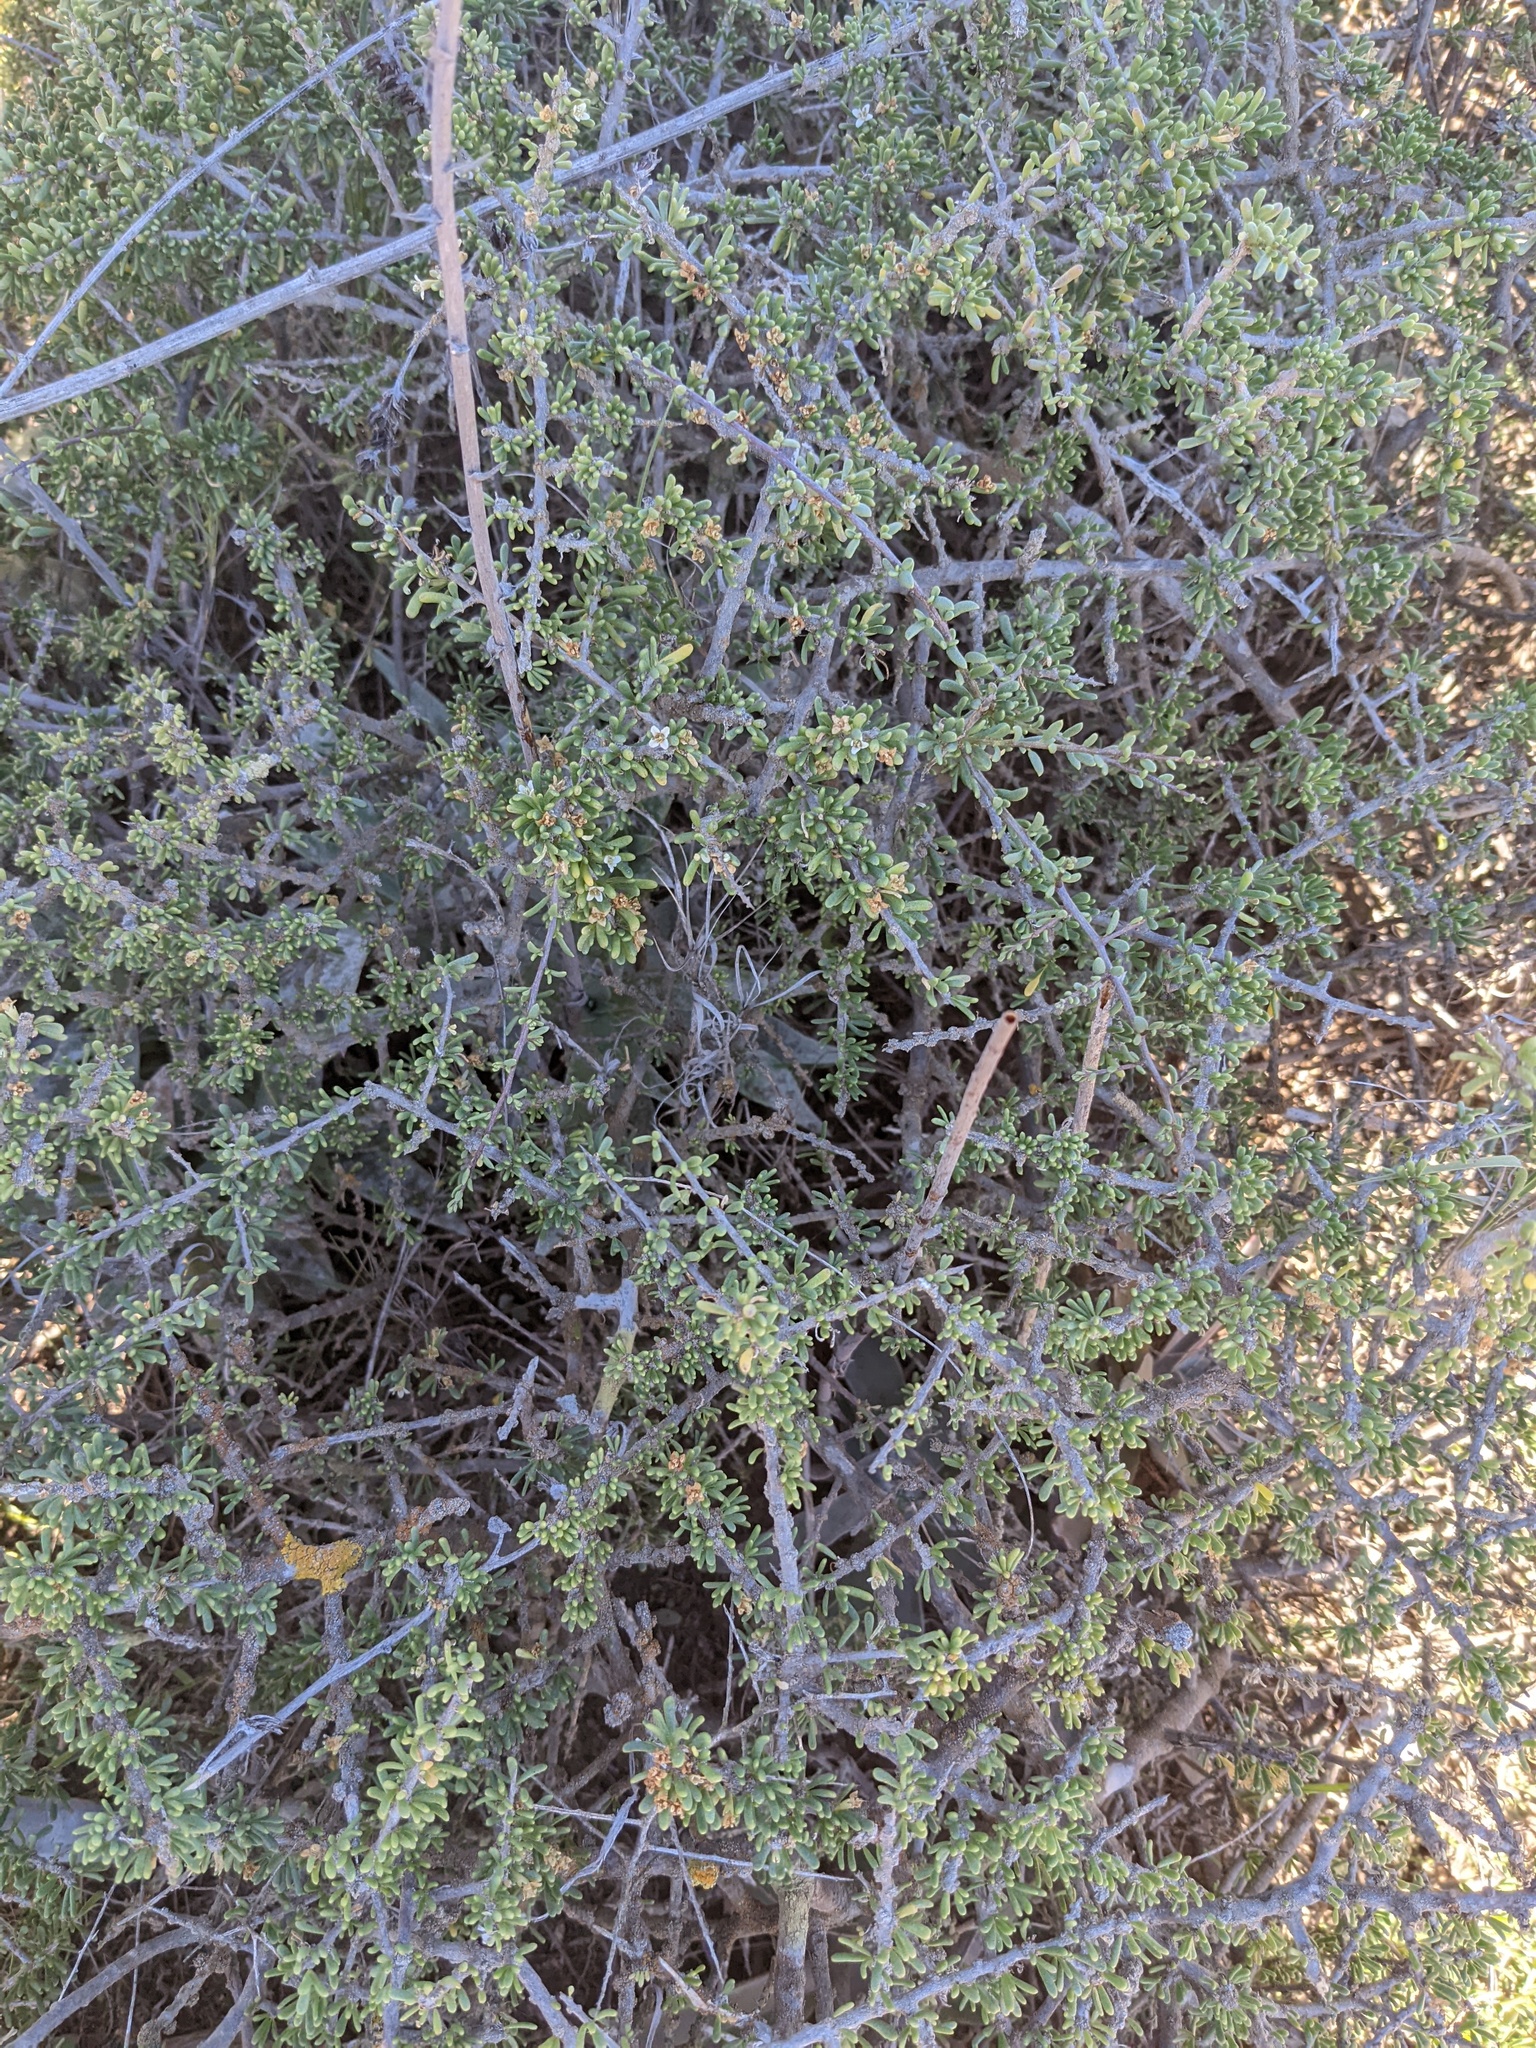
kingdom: Plantae
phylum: Tracheophyta
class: Magnoliopsida
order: Solanales
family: Solanaceae
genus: Lycium
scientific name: Lycium californicum
